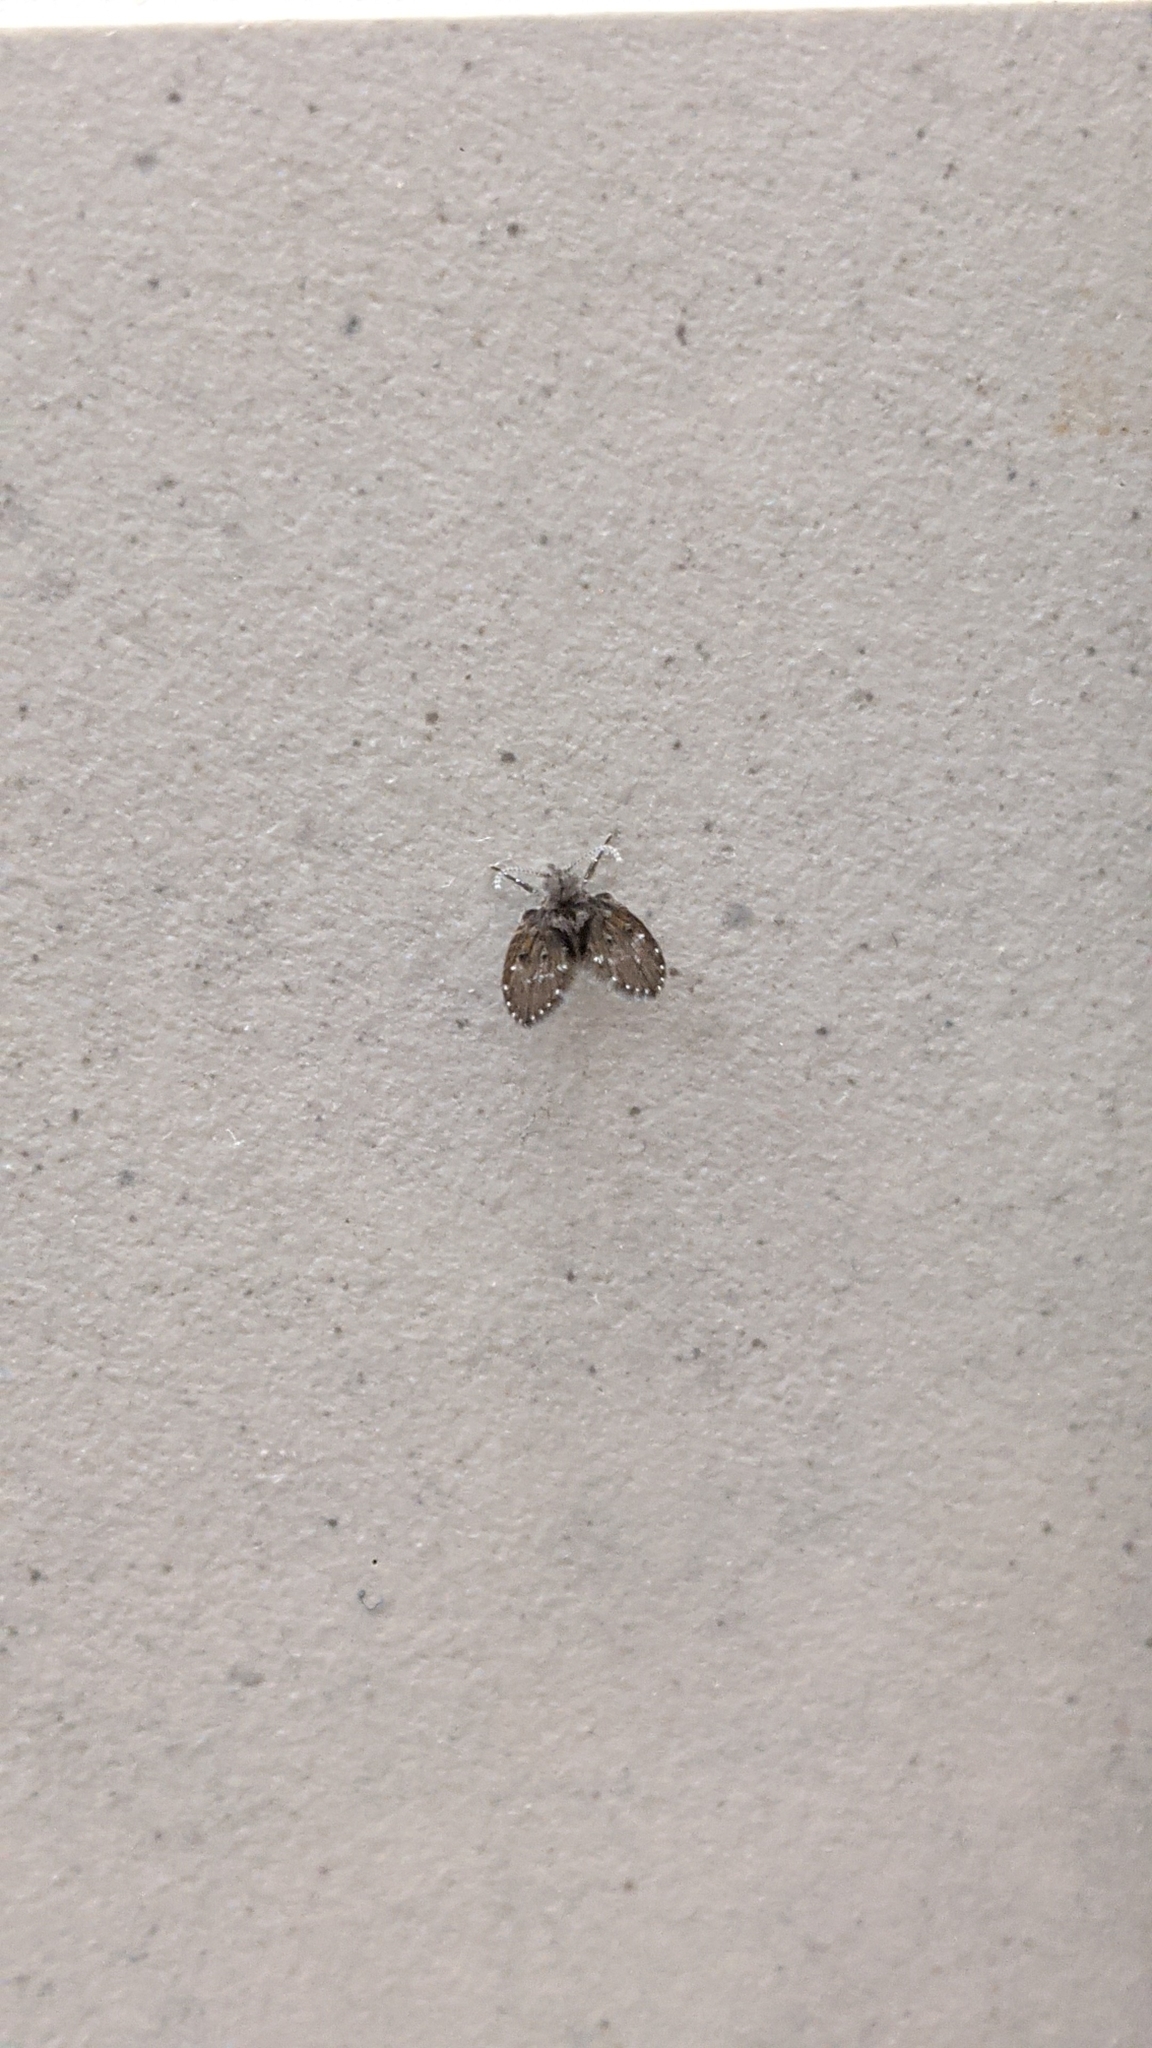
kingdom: Animalia
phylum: Arthropoda
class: Insecta
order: Diptera
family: Psychodidae
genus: Clogmia
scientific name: Clogmia albipunctatus
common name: White-spotted moth fly
